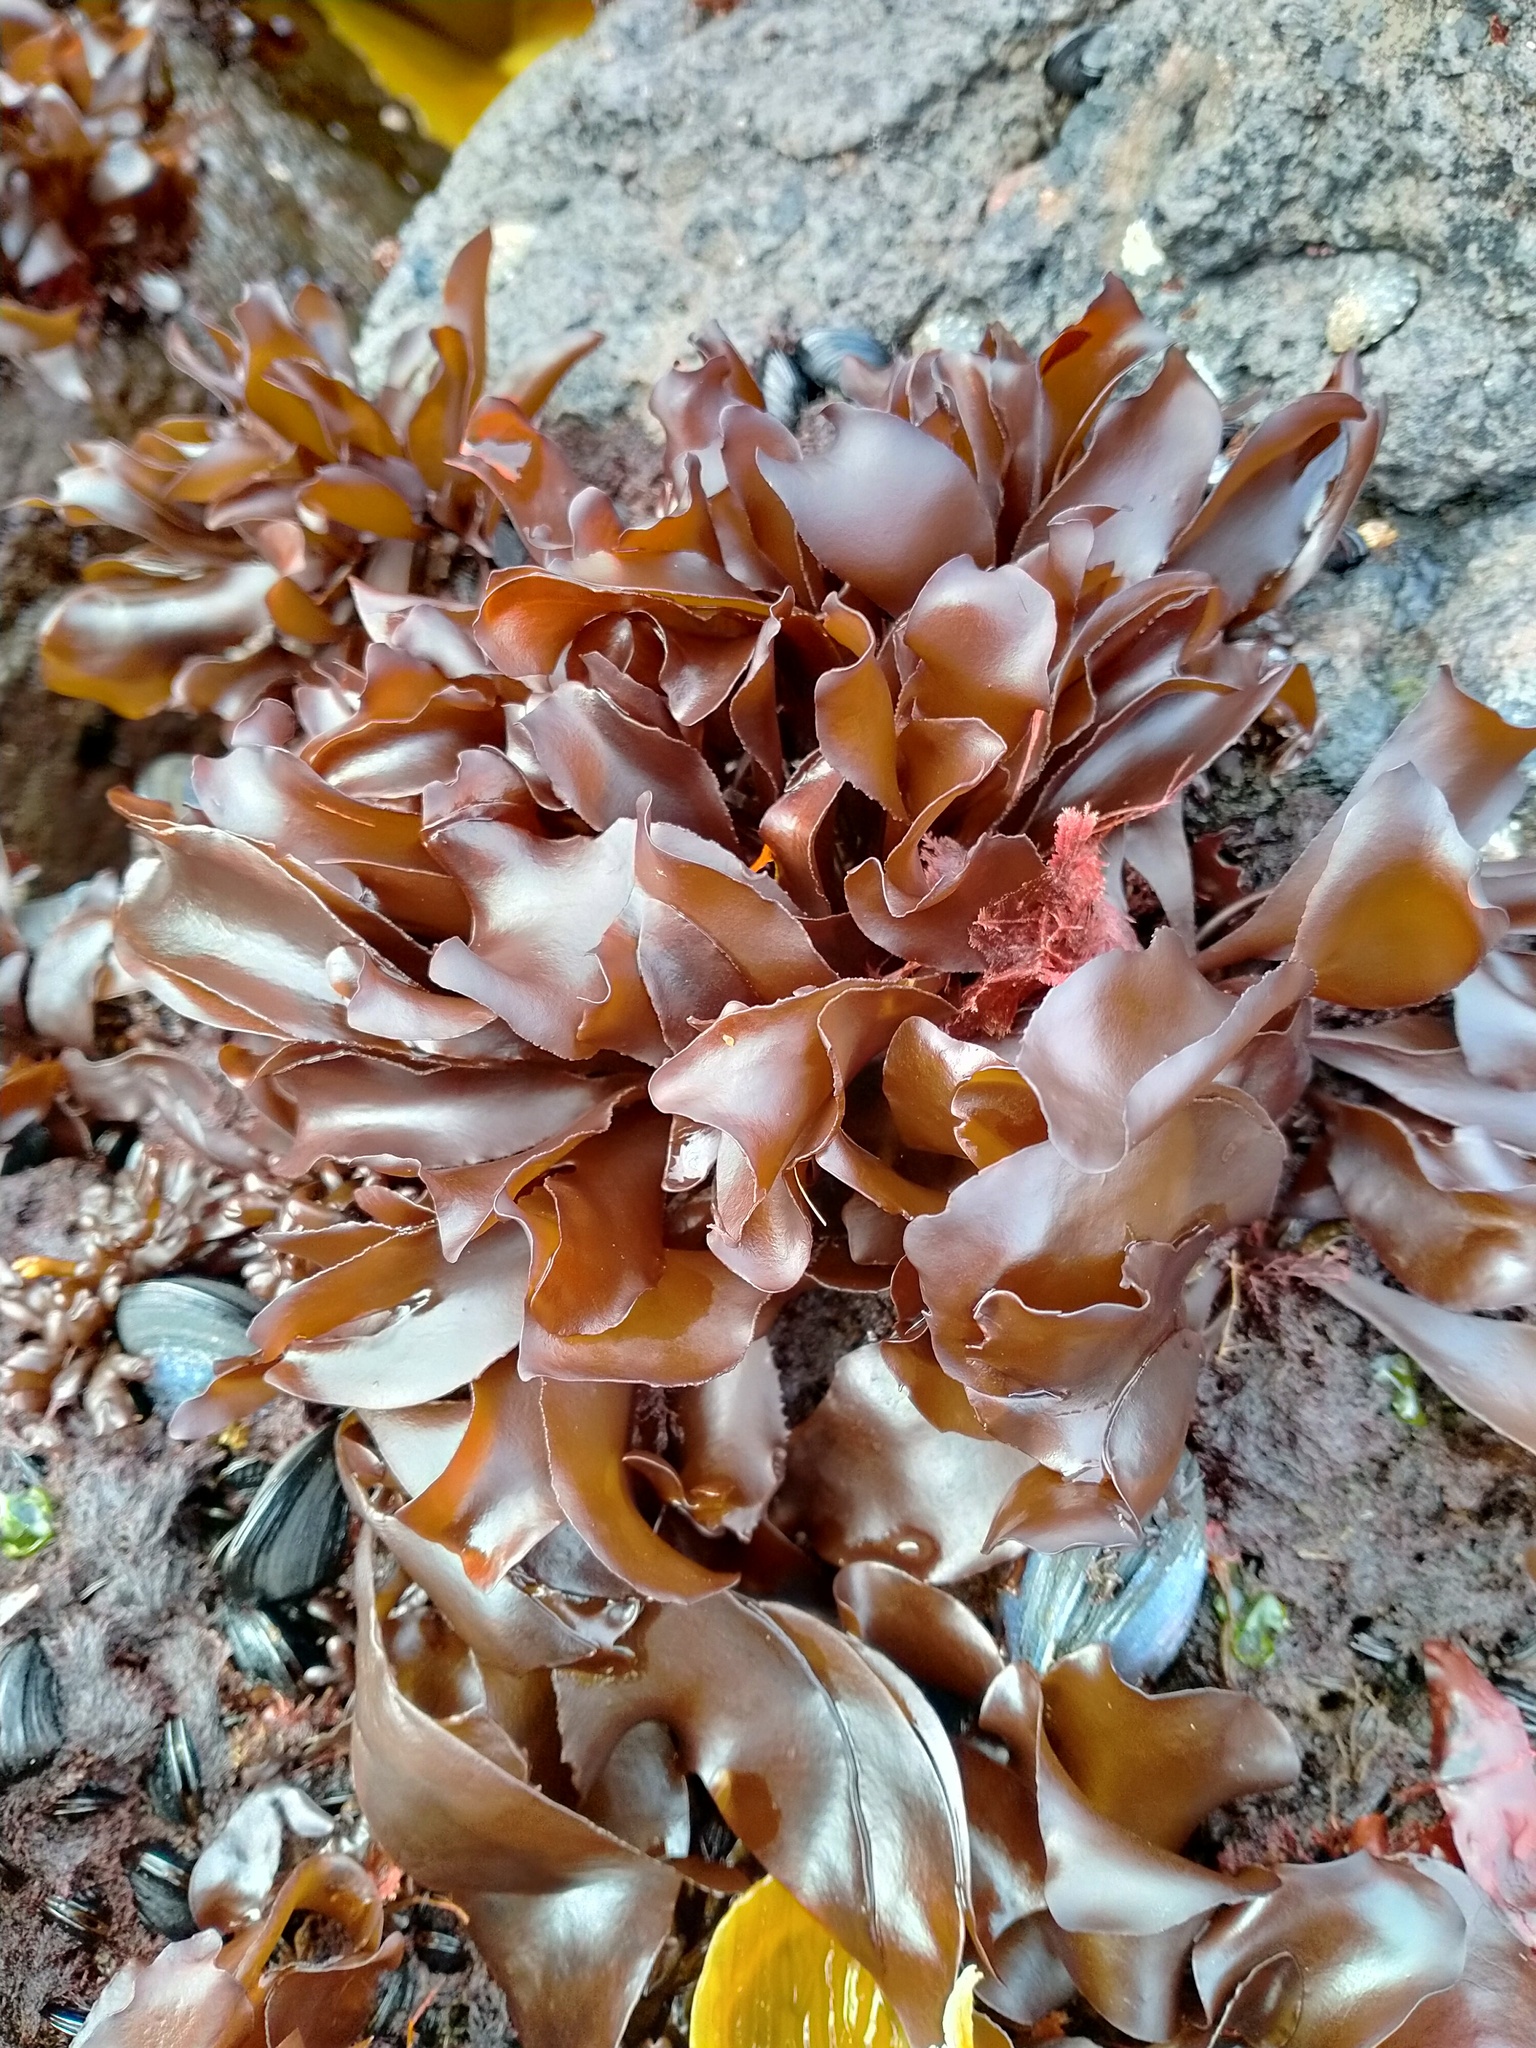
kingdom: Plantae
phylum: Rhodophyta
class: Florideophyceae
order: Gigartinales
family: Gigartinaceae
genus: Iridaea
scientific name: Iridaea tuberculosa
